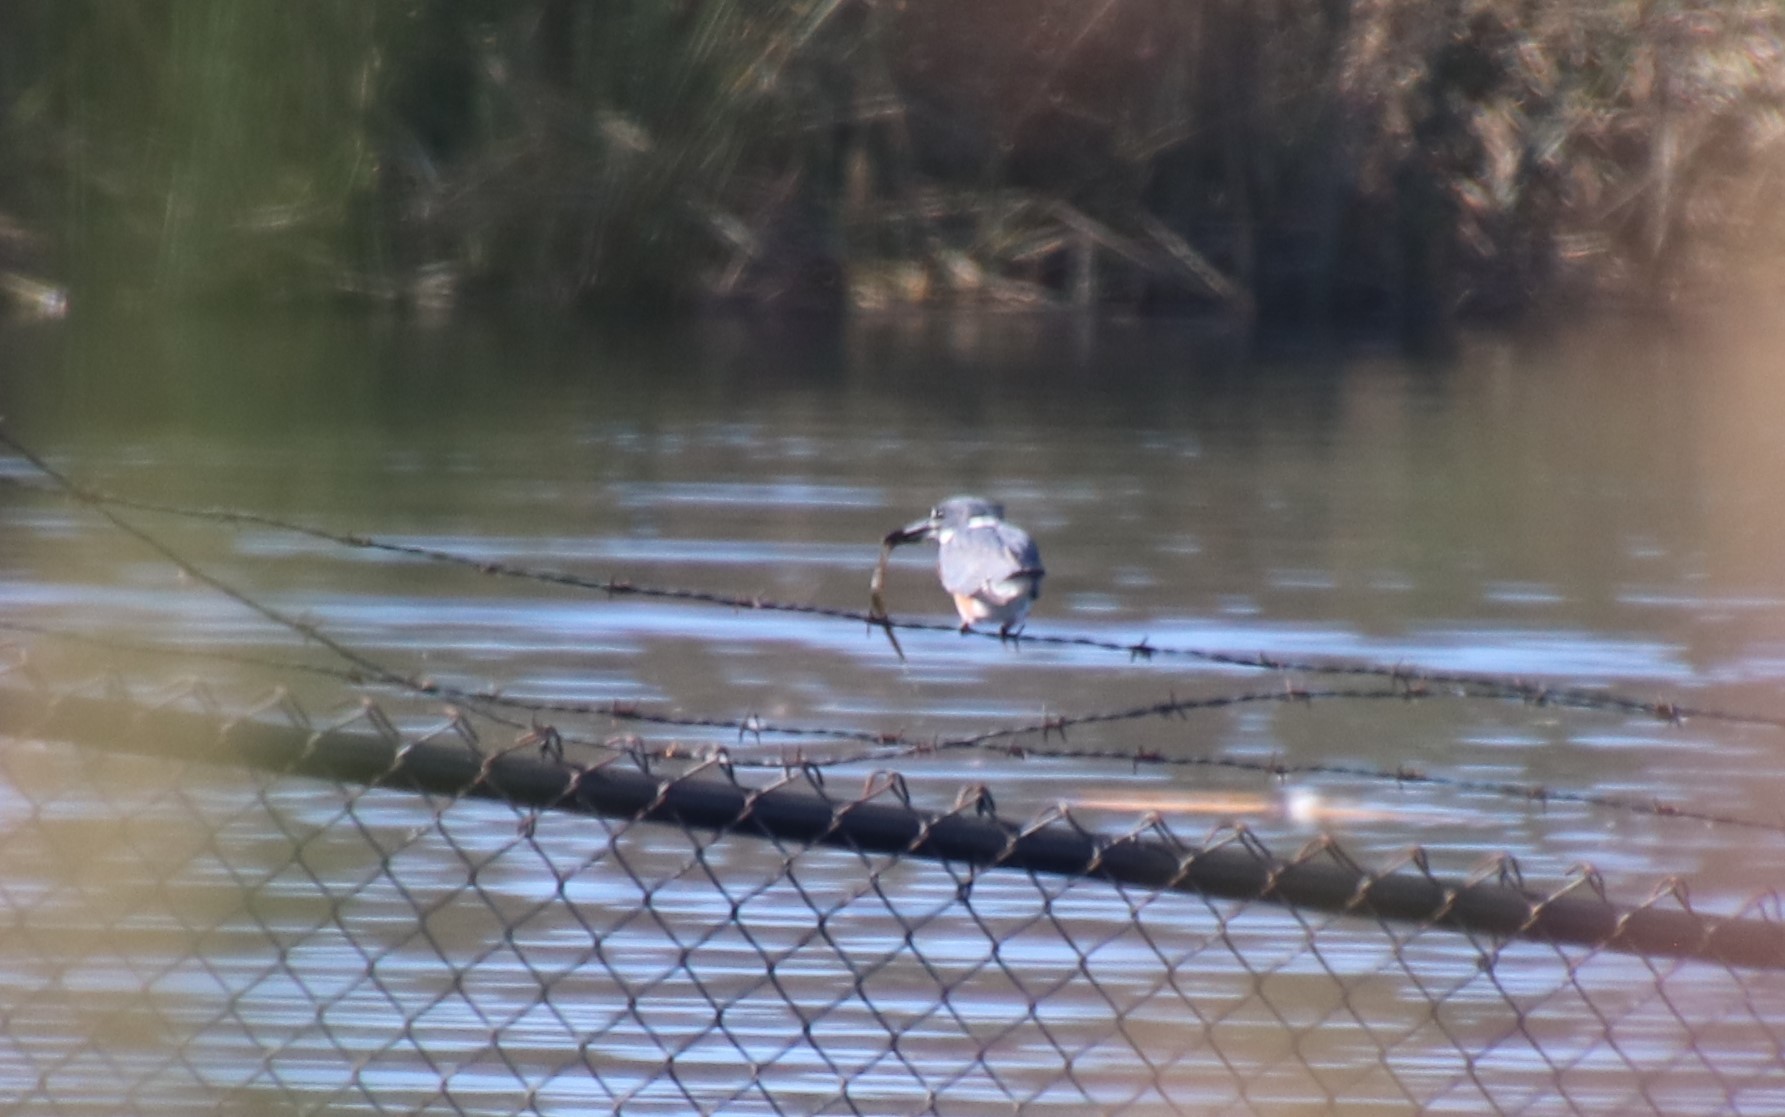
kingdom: Animalia
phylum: Chordata
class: Aves
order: Coraciiformes
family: Alcedinidae
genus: Megaceryle
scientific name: Megaceryle alcyon
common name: Belted kingfisher
